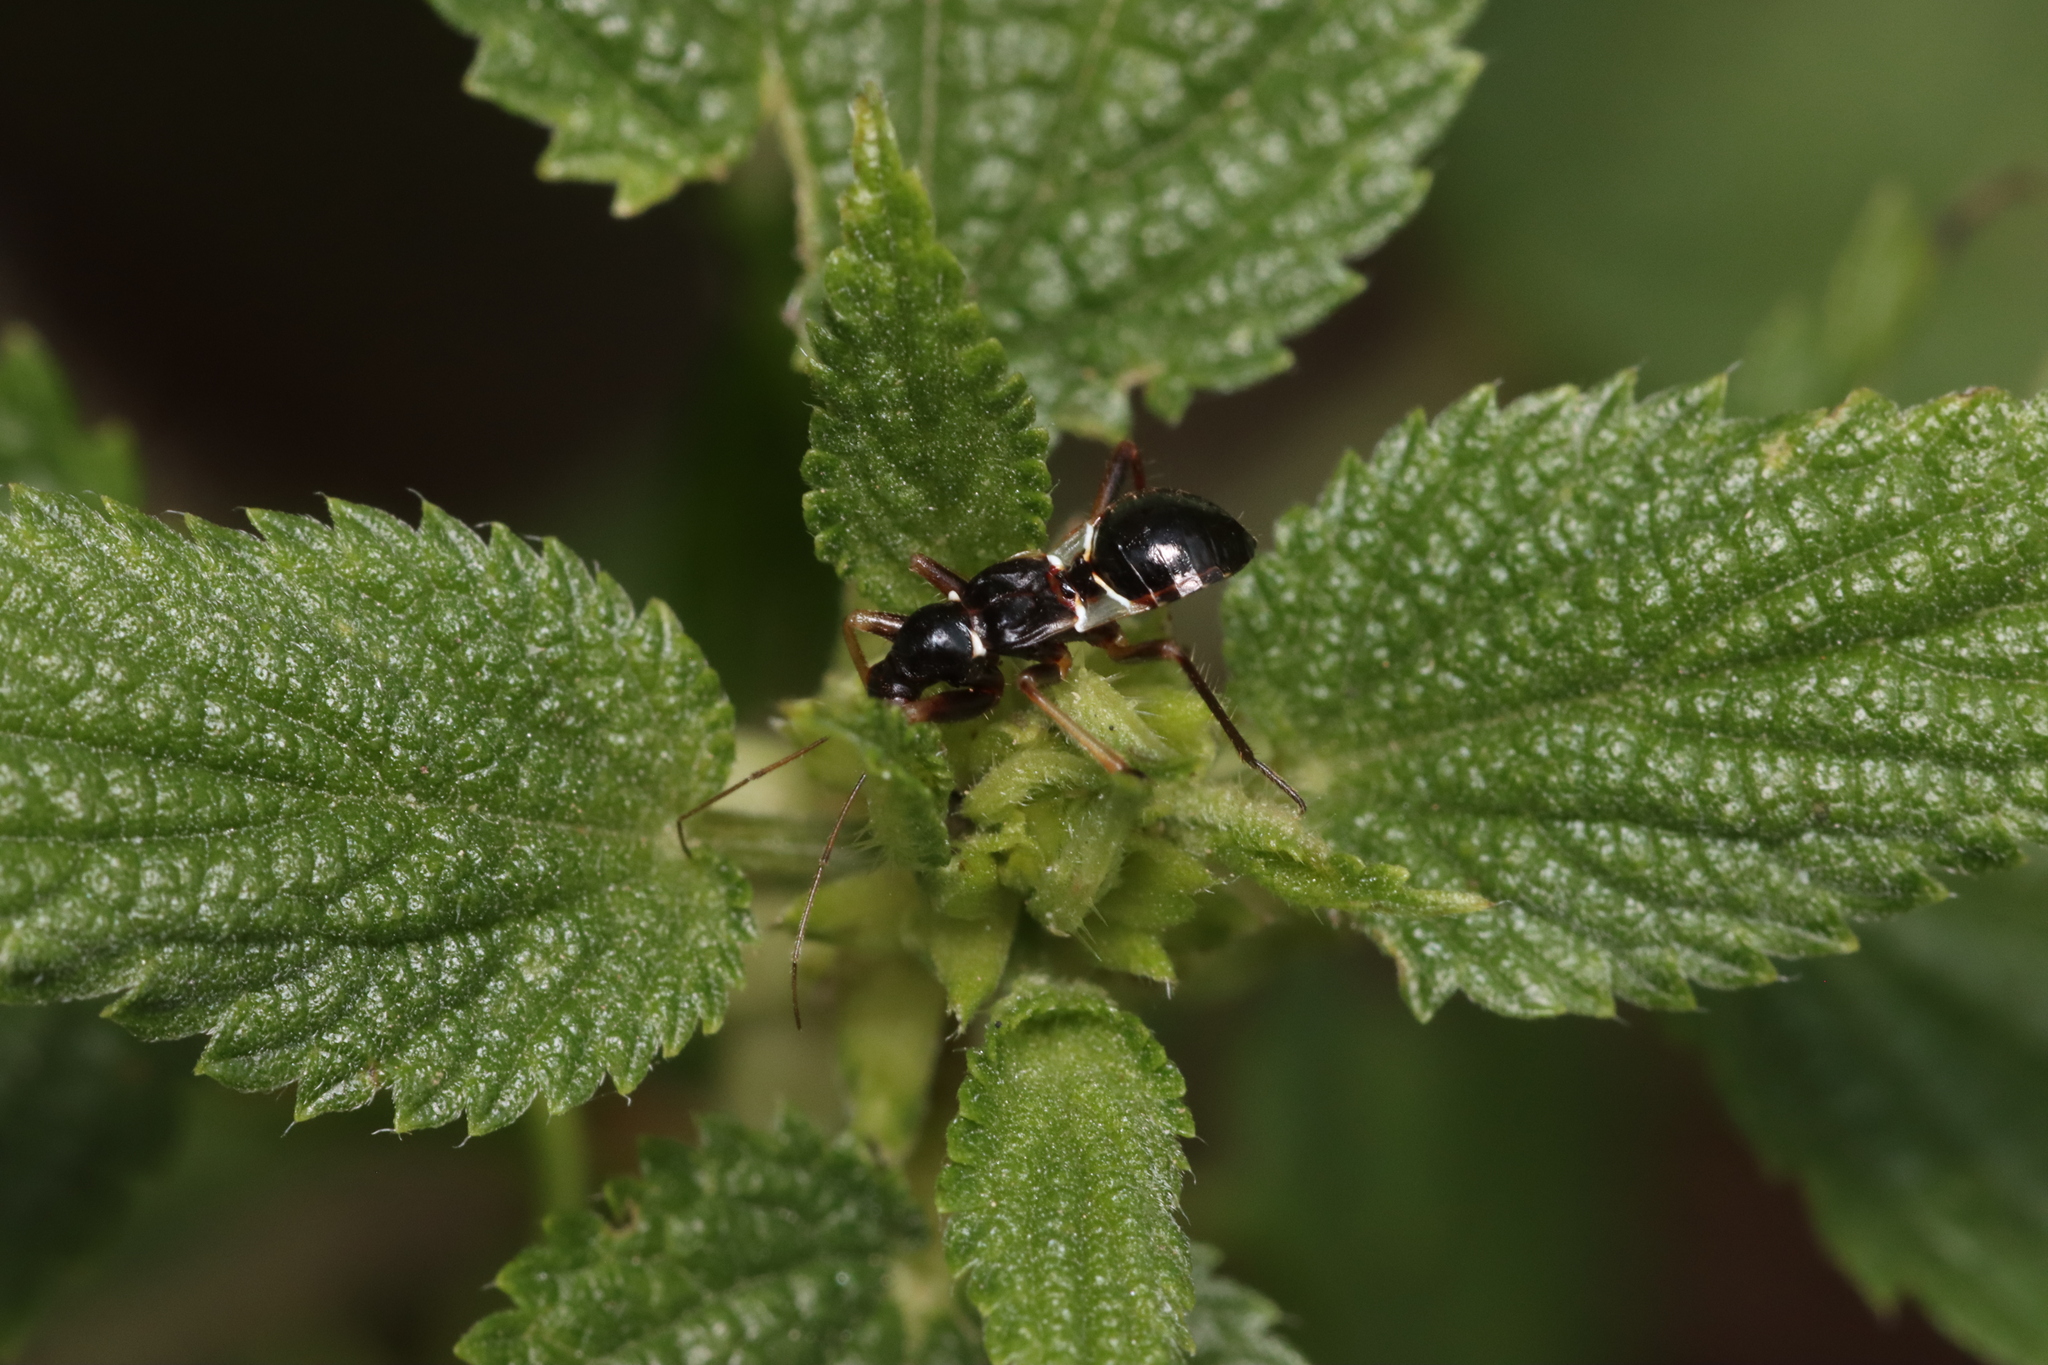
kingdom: Animalia
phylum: Arthropoda
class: Insecta
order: Hemiptera
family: Nabidae
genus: Himacerus
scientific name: Himacerus mirmicoides
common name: Ant damsel bug
